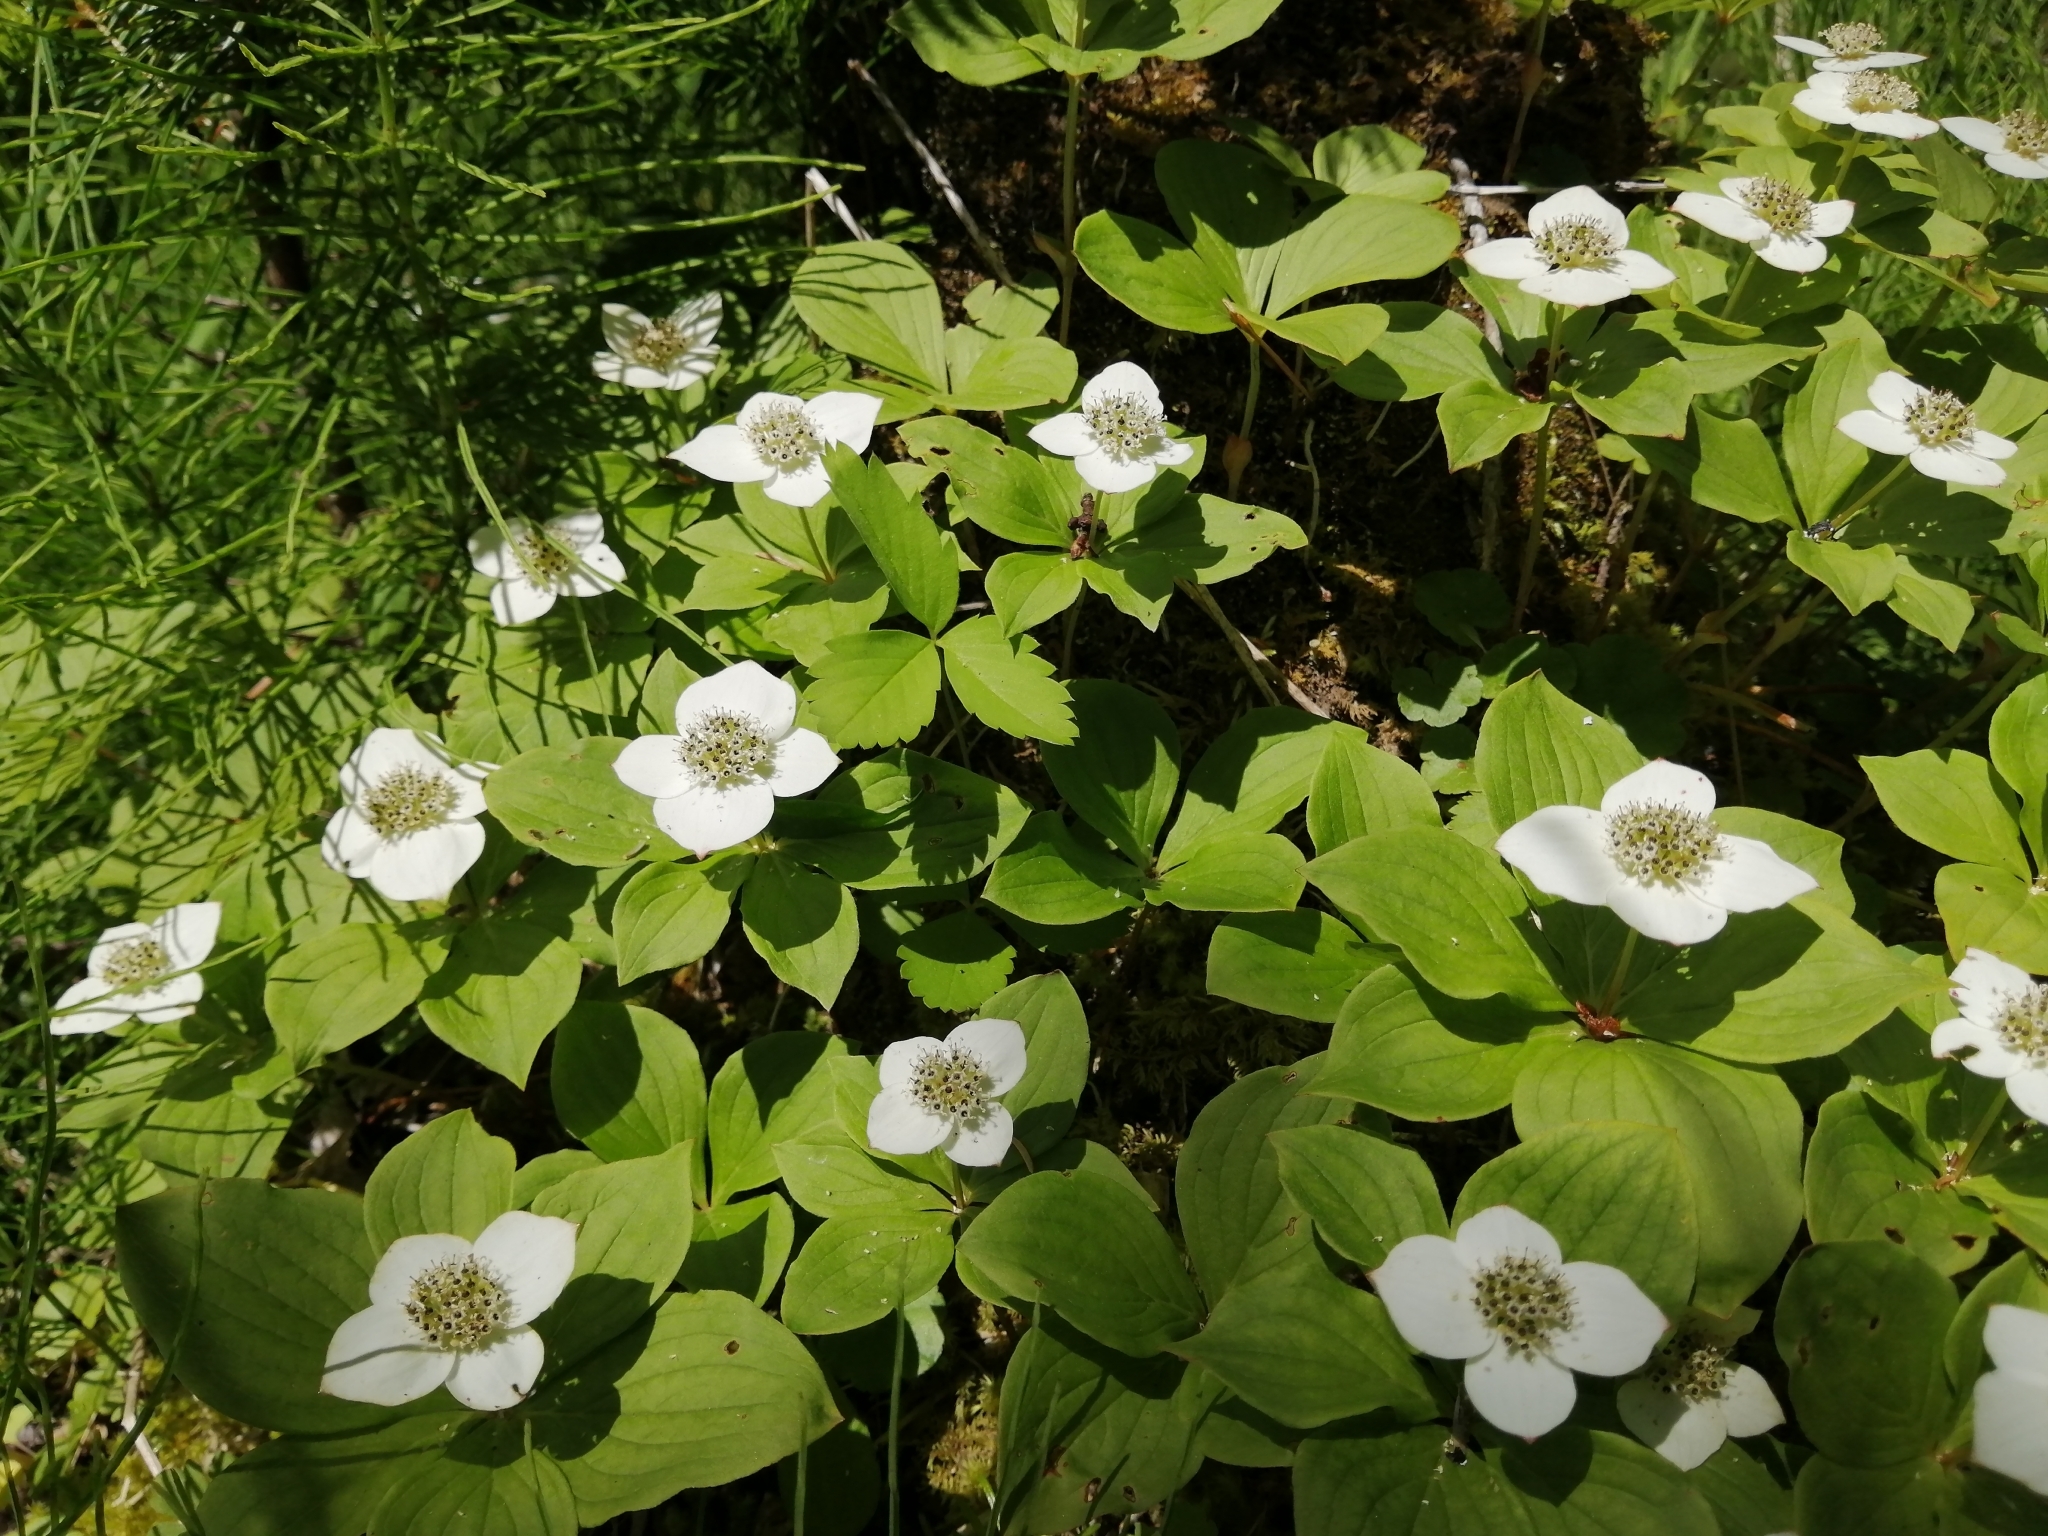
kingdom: Plantae
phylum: Tracheophyta
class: Magnoliopsida
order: Cornales
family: Cornaceae
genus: Cornus
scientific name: Cornus canadensis
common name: Creeping dogwood
